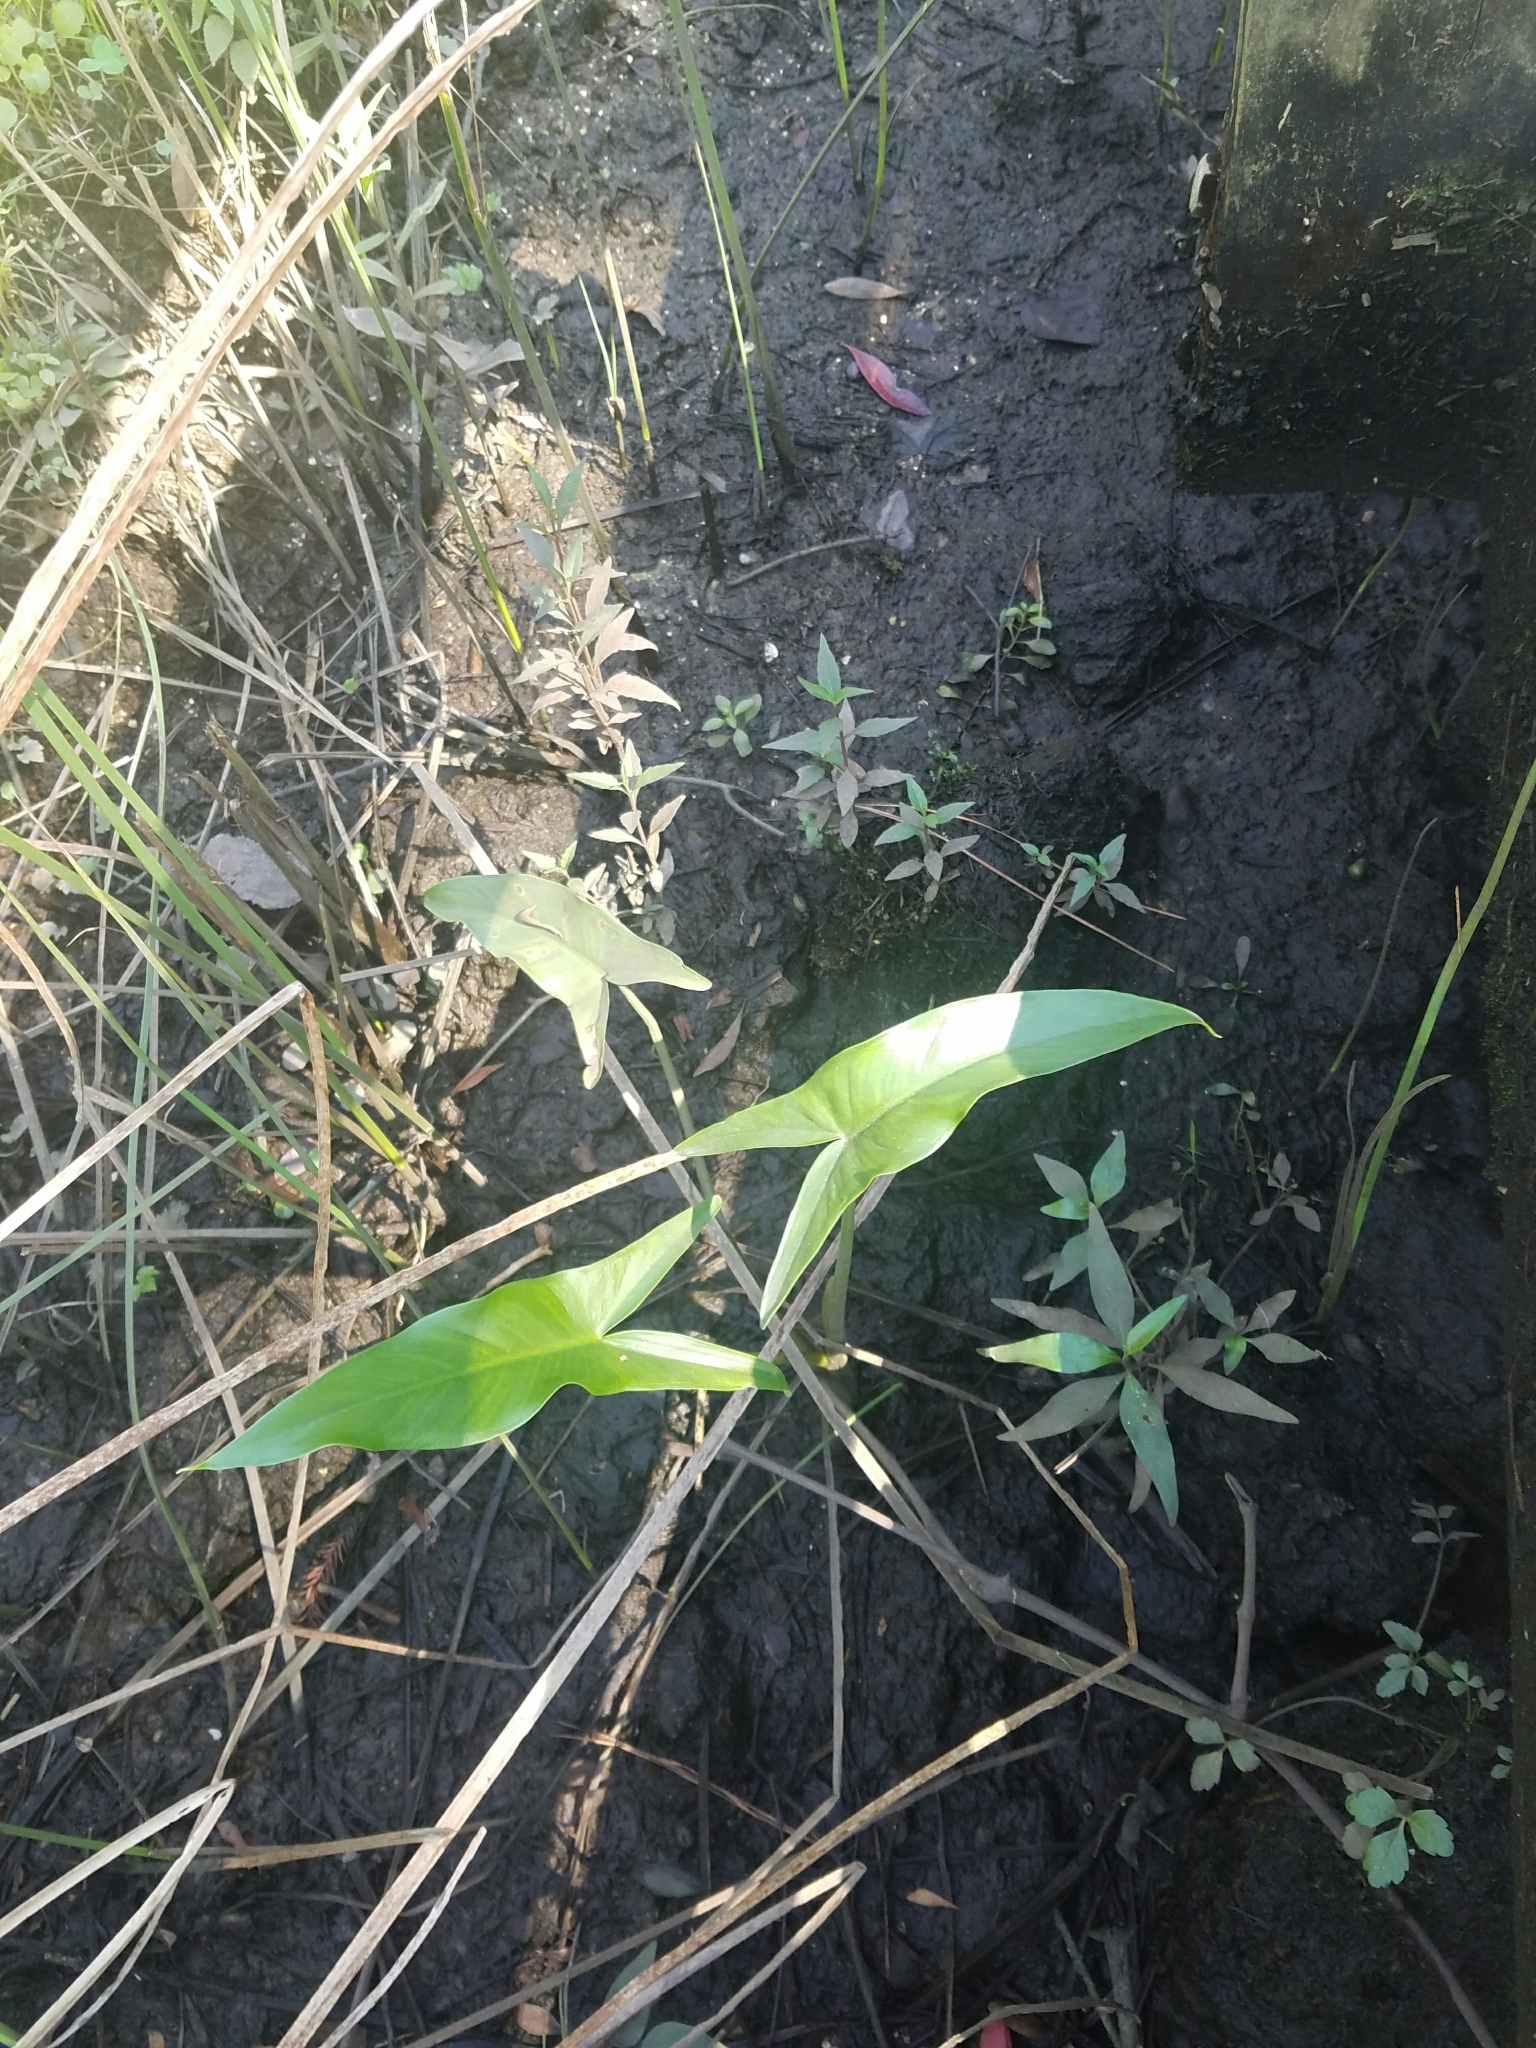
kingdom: Plantae
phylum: Tracheophyta
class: Liliopsida
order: Alismatales
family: Araceae
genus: Peltandra
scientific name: Peltandra virginica
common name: Arrow arum
